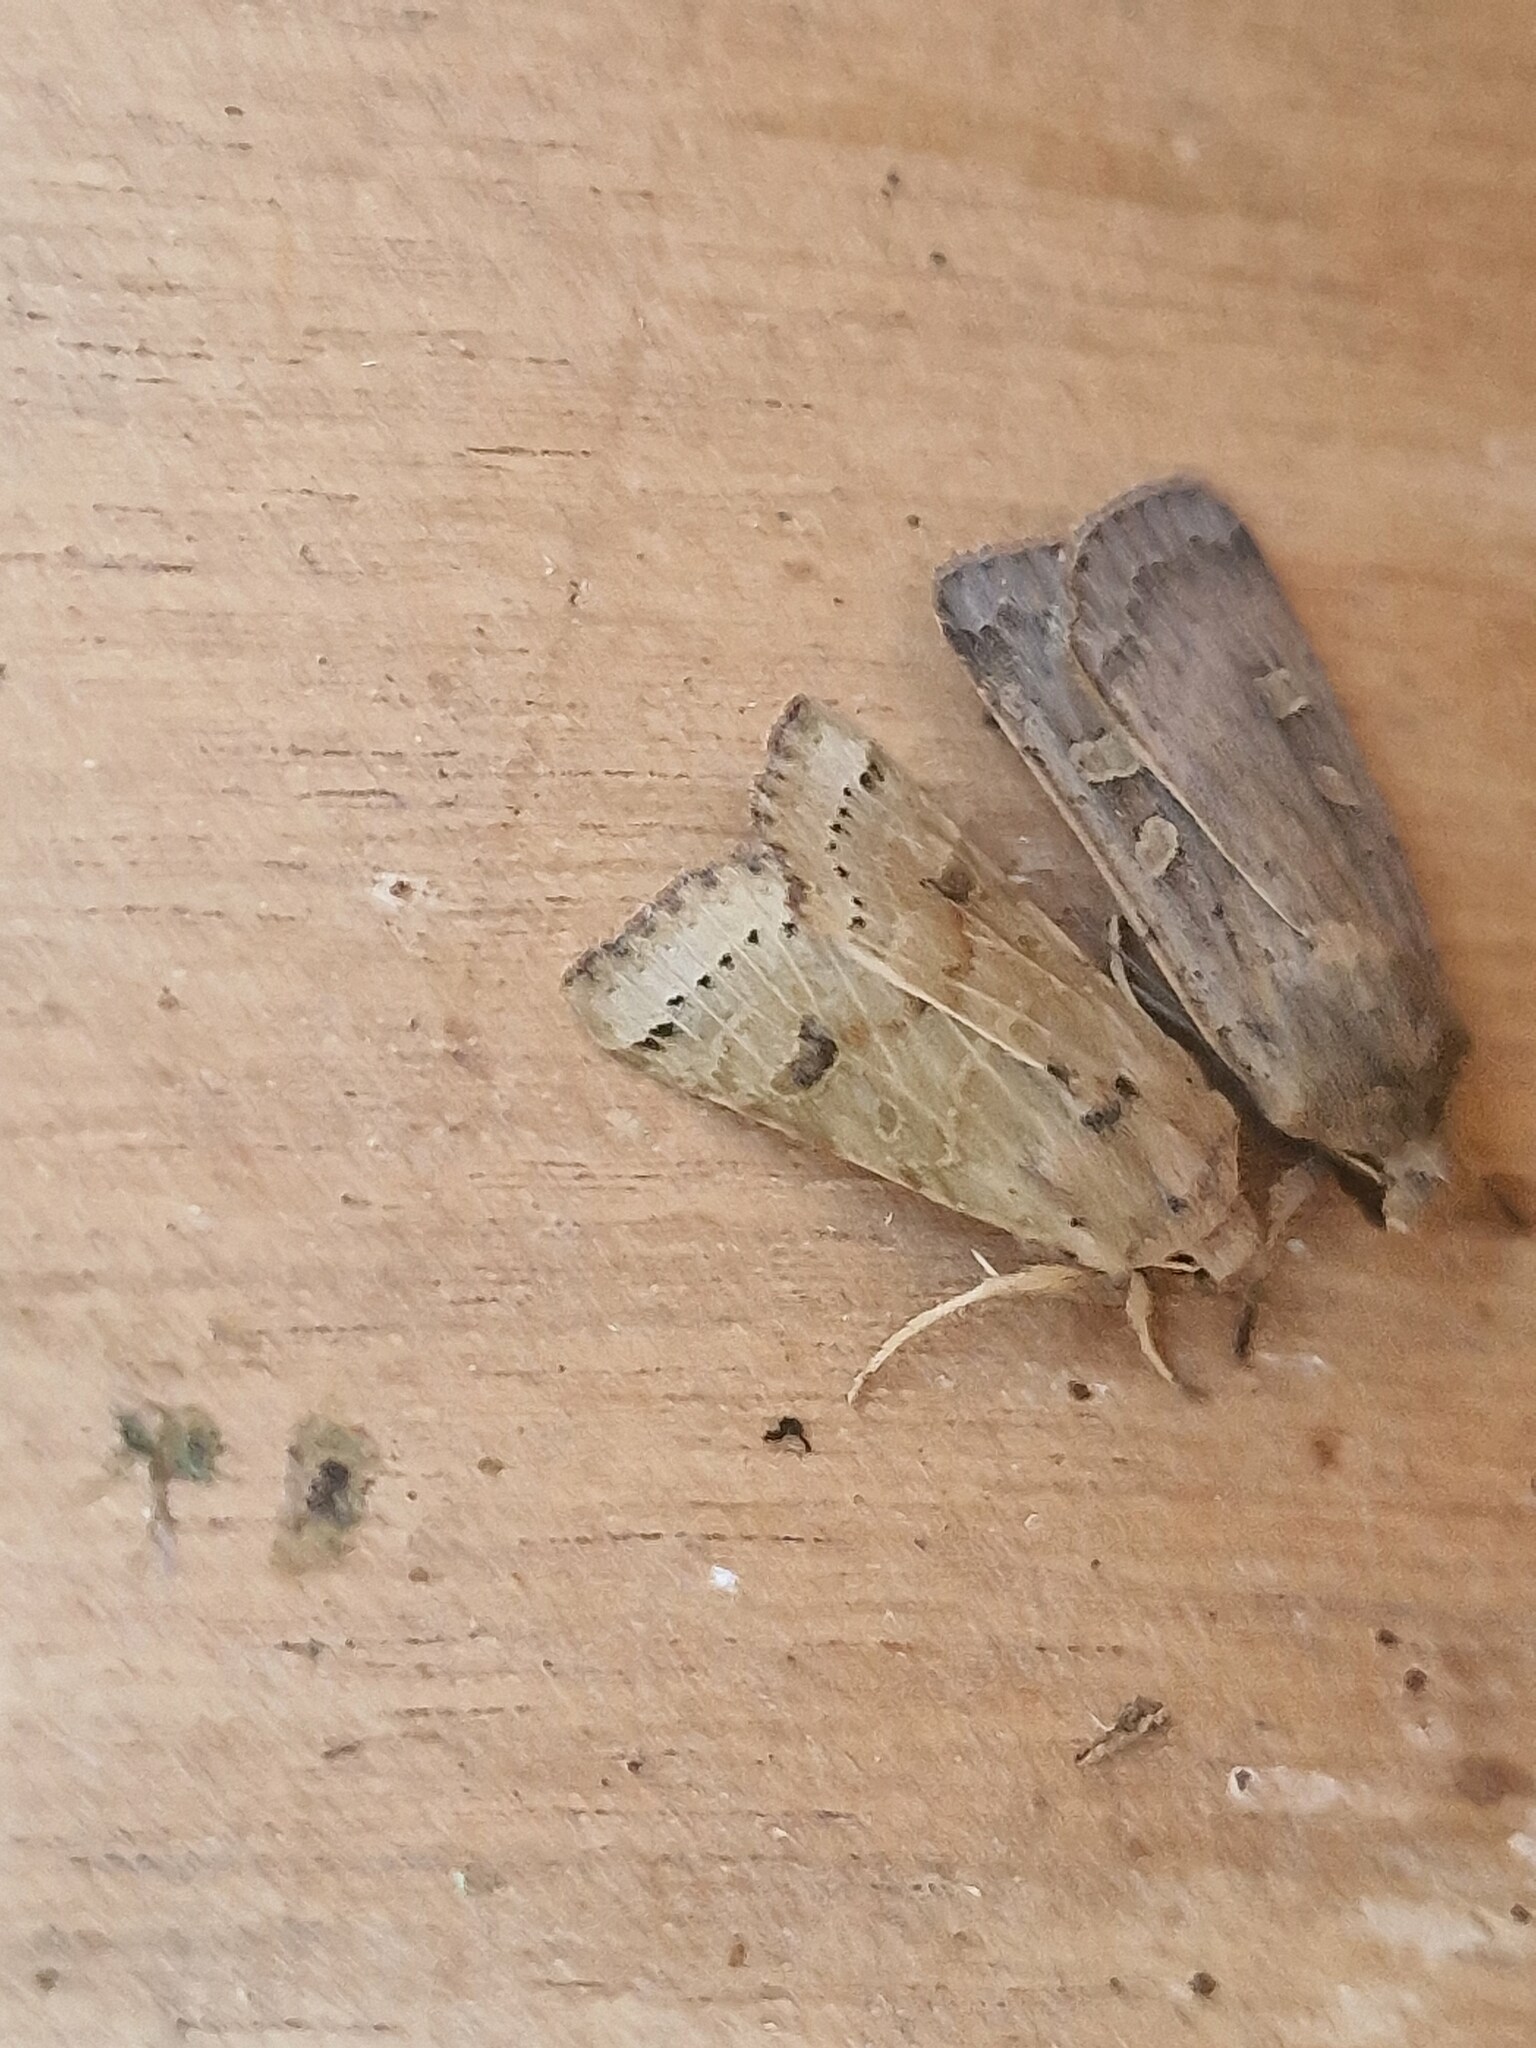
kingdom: Animalia
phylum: Arthropoda
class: Insecta
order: Lepidoptera
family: Noctuidae
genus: Agrochola
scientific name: Agrochola lunosa
